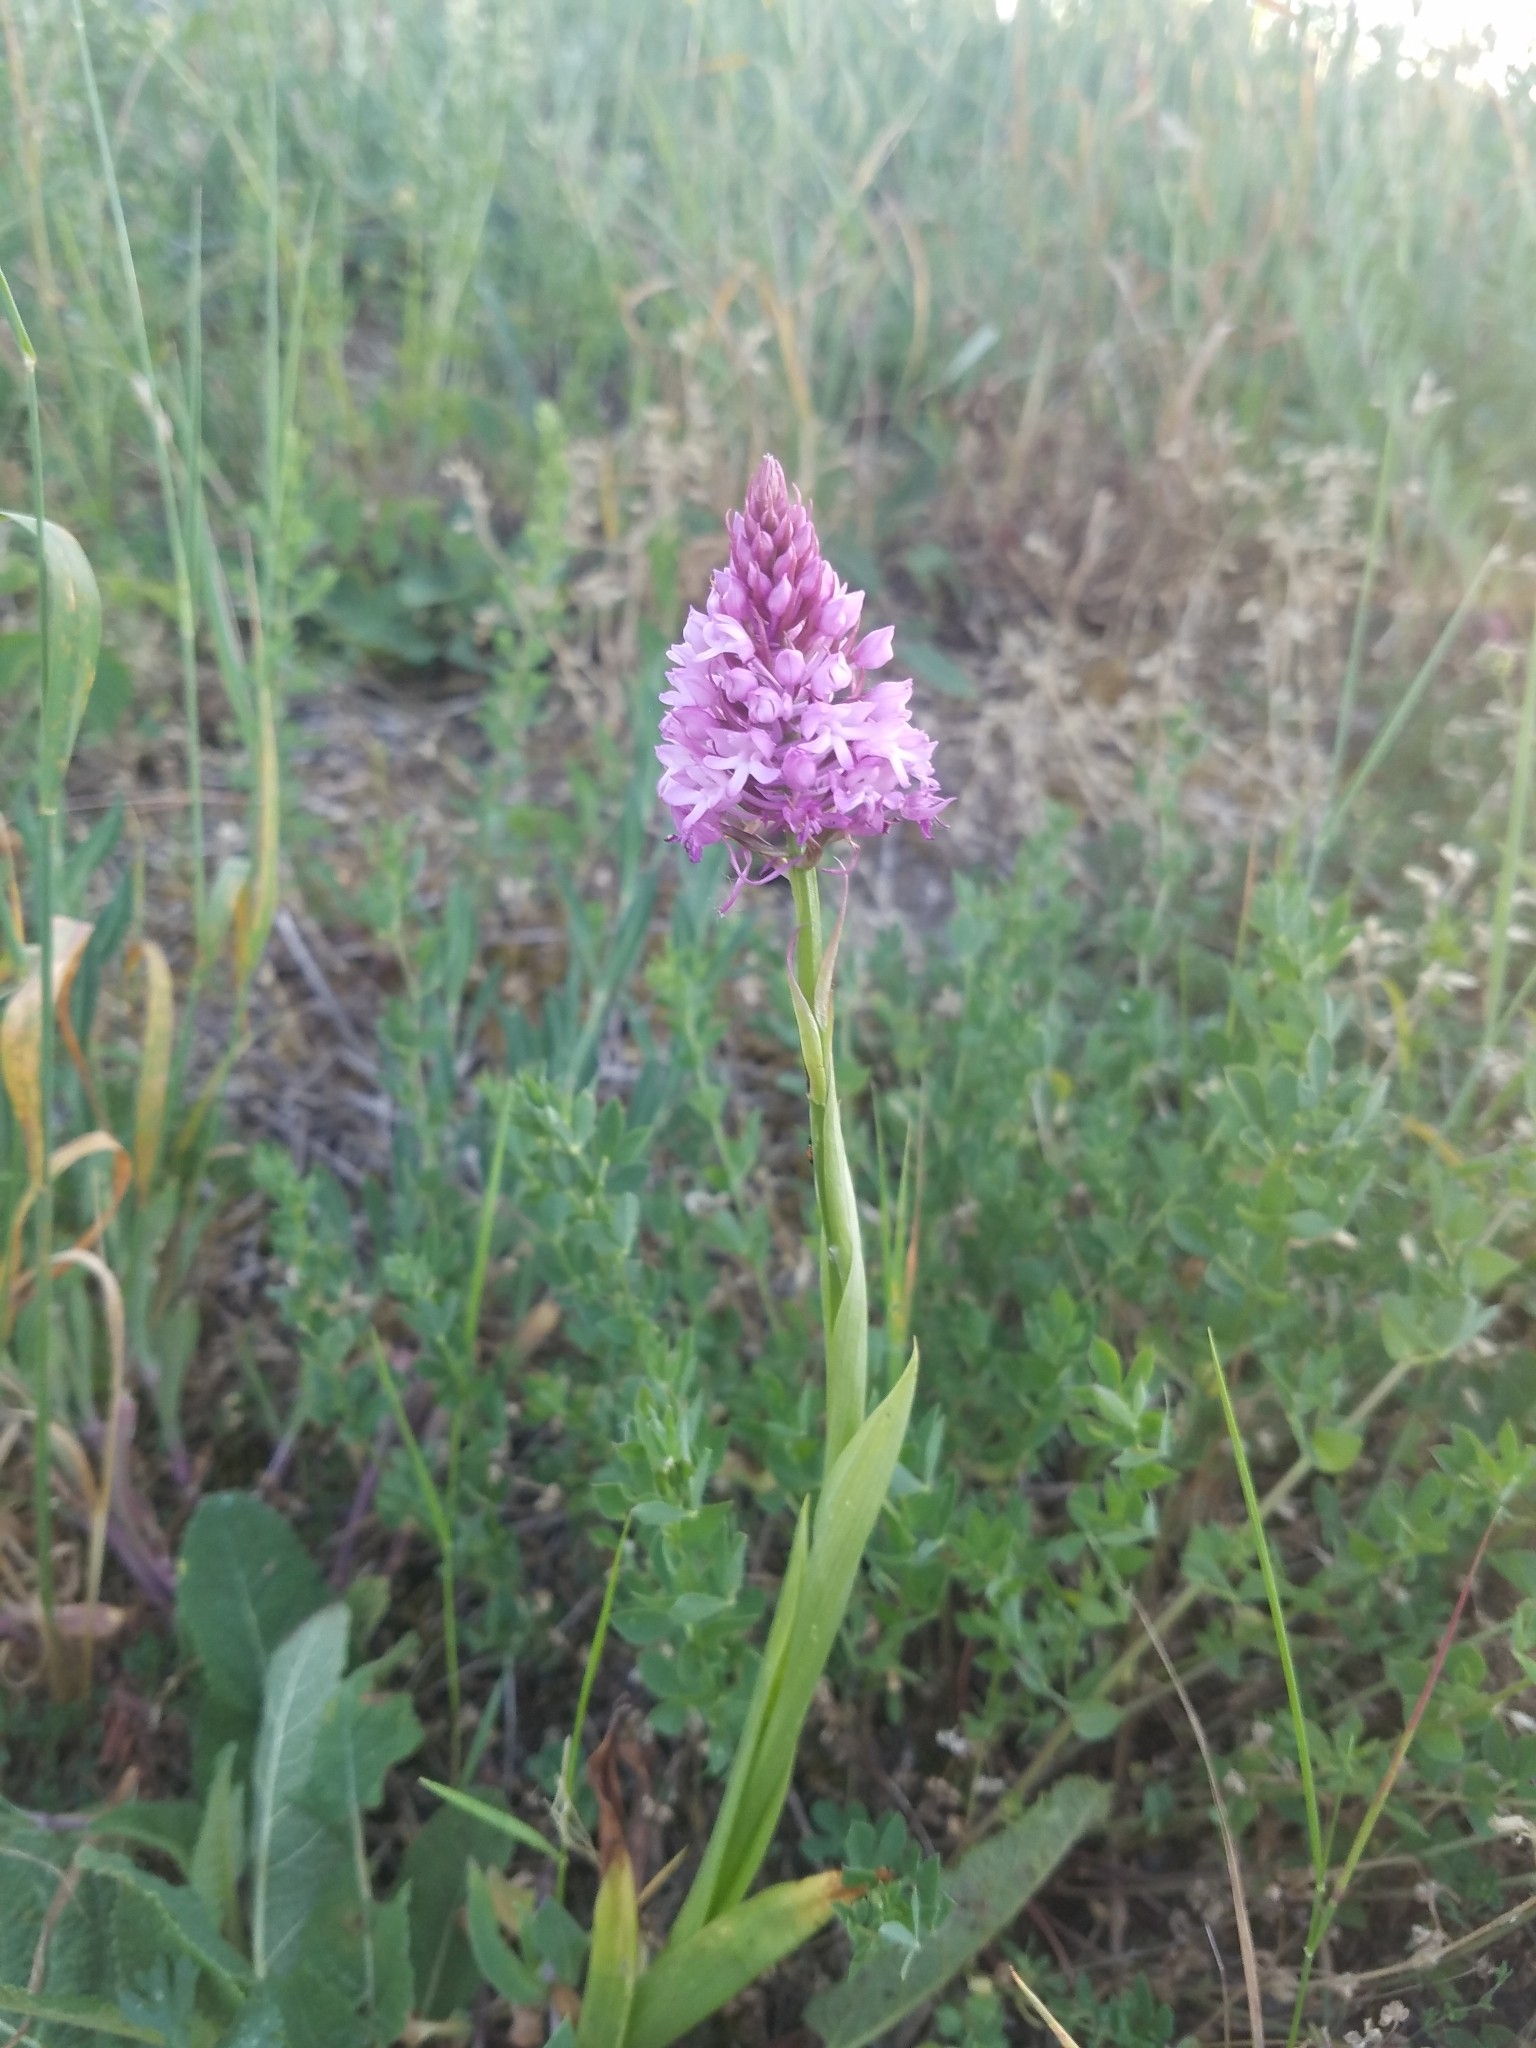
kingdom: Plantae
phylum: Tracheophyta
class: Liliopsida
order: Asparagales
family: Orchidaceae
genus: Anacamptis
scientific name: Anacamptis pyramidalis
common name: Pyramidal orchid
